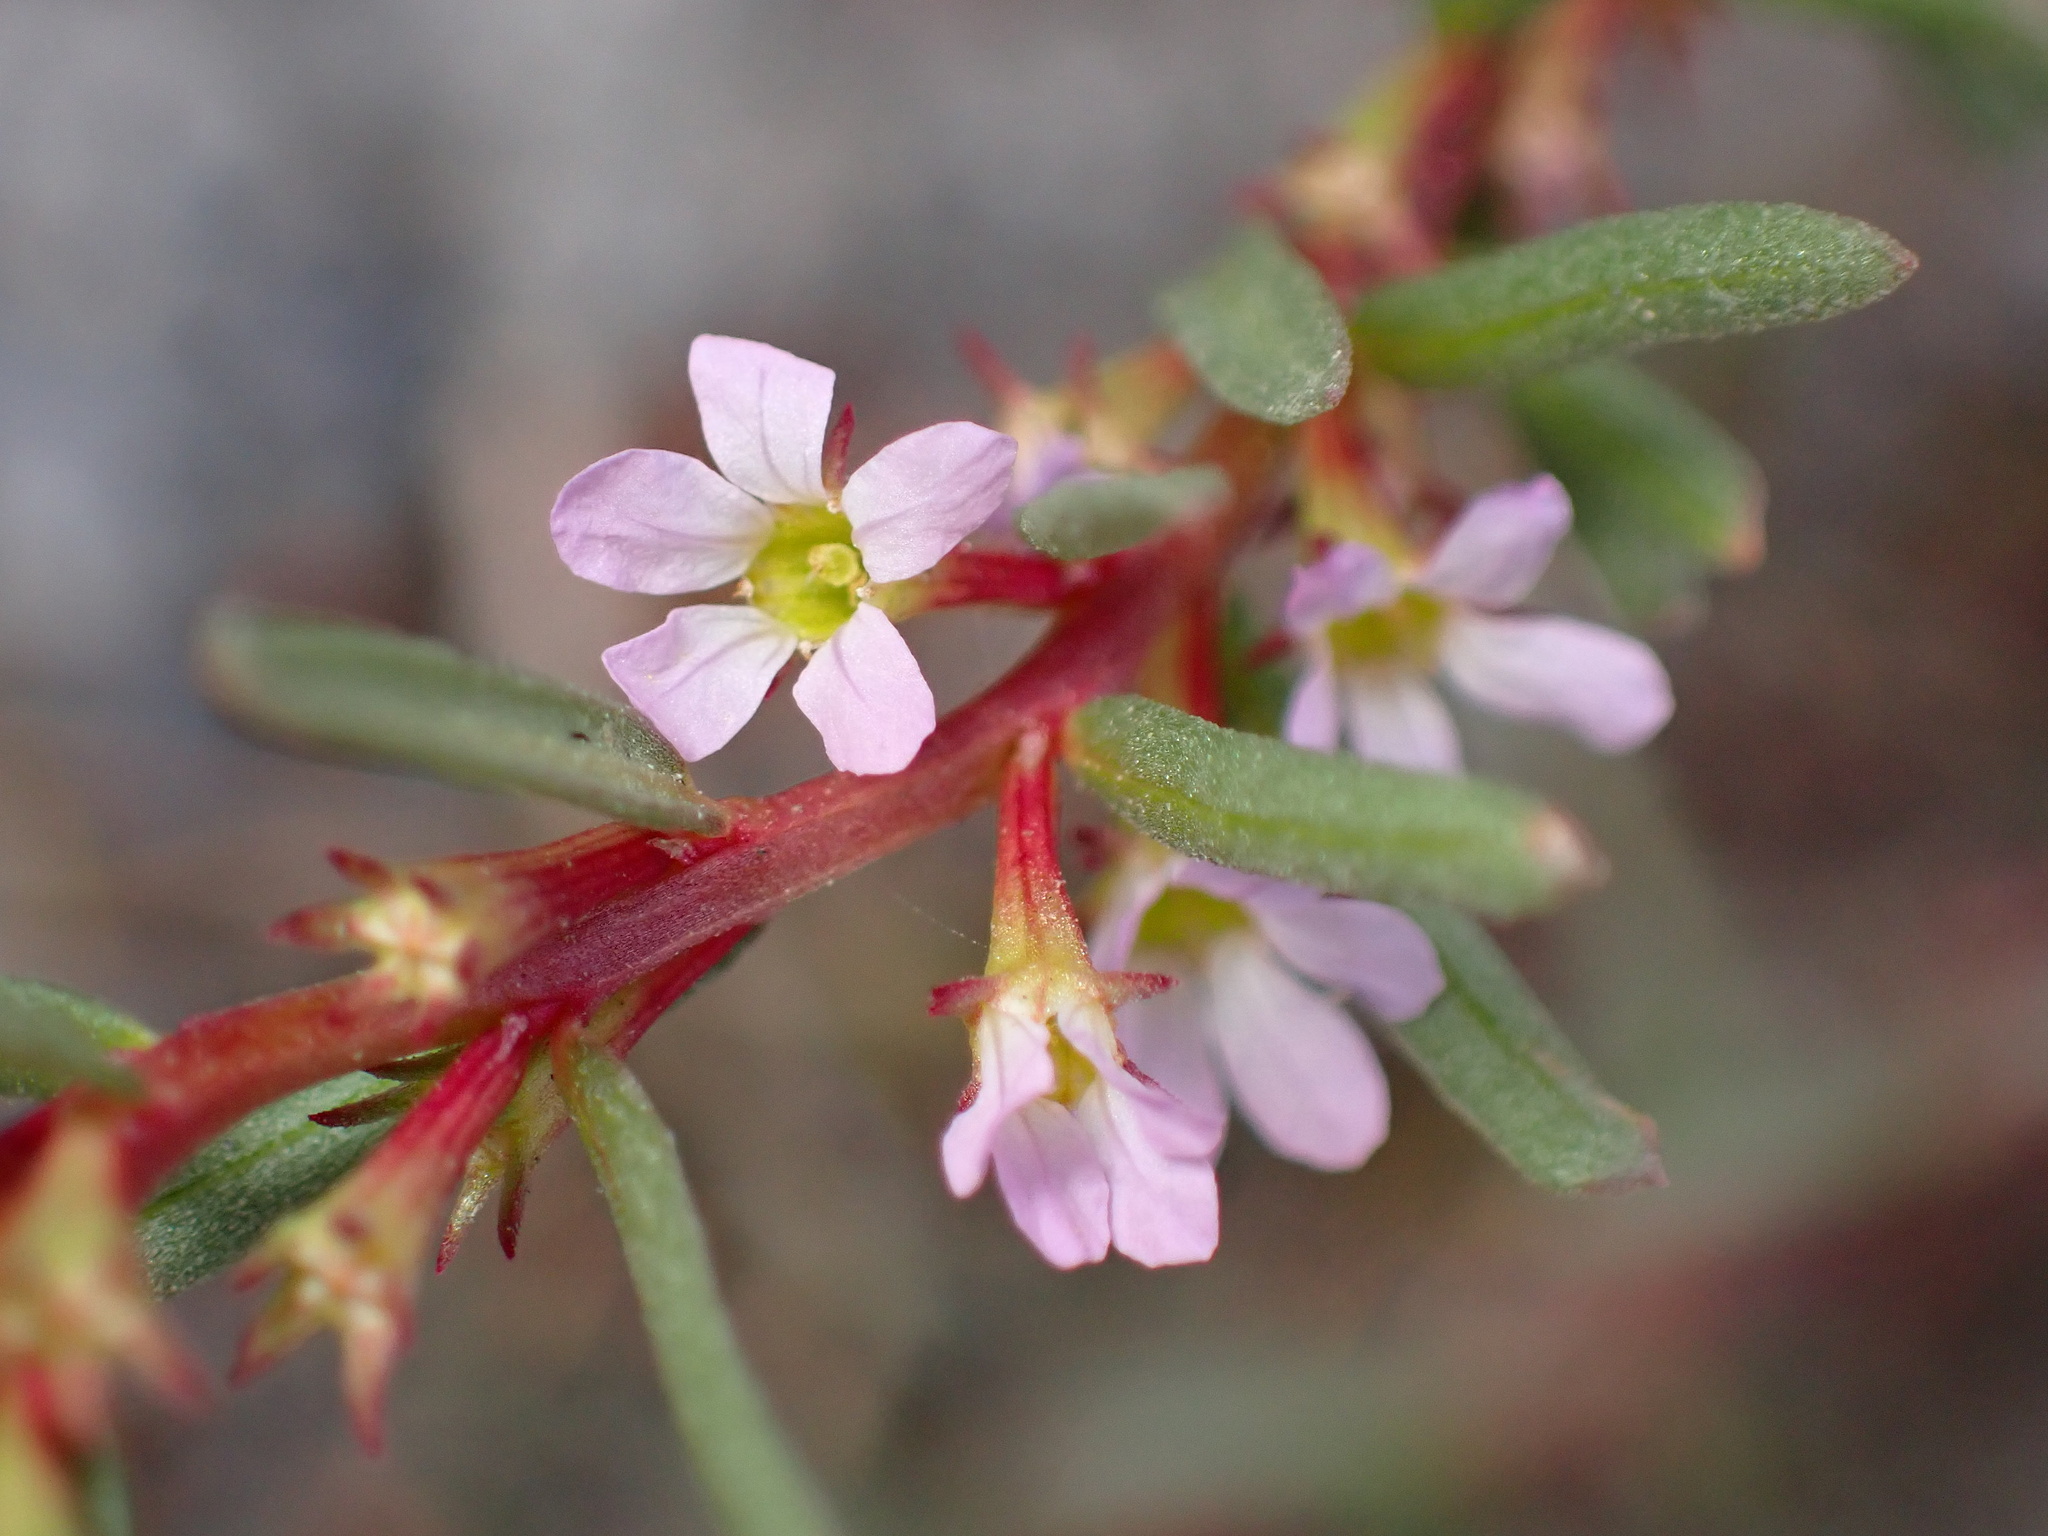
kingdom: Plantae
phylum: Tracheophyta
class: Magnoliopsida
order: Myrtales
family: Lythraceae
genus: Lythrum
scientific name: Lythrum hyssopifolia
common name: Grass-poly
